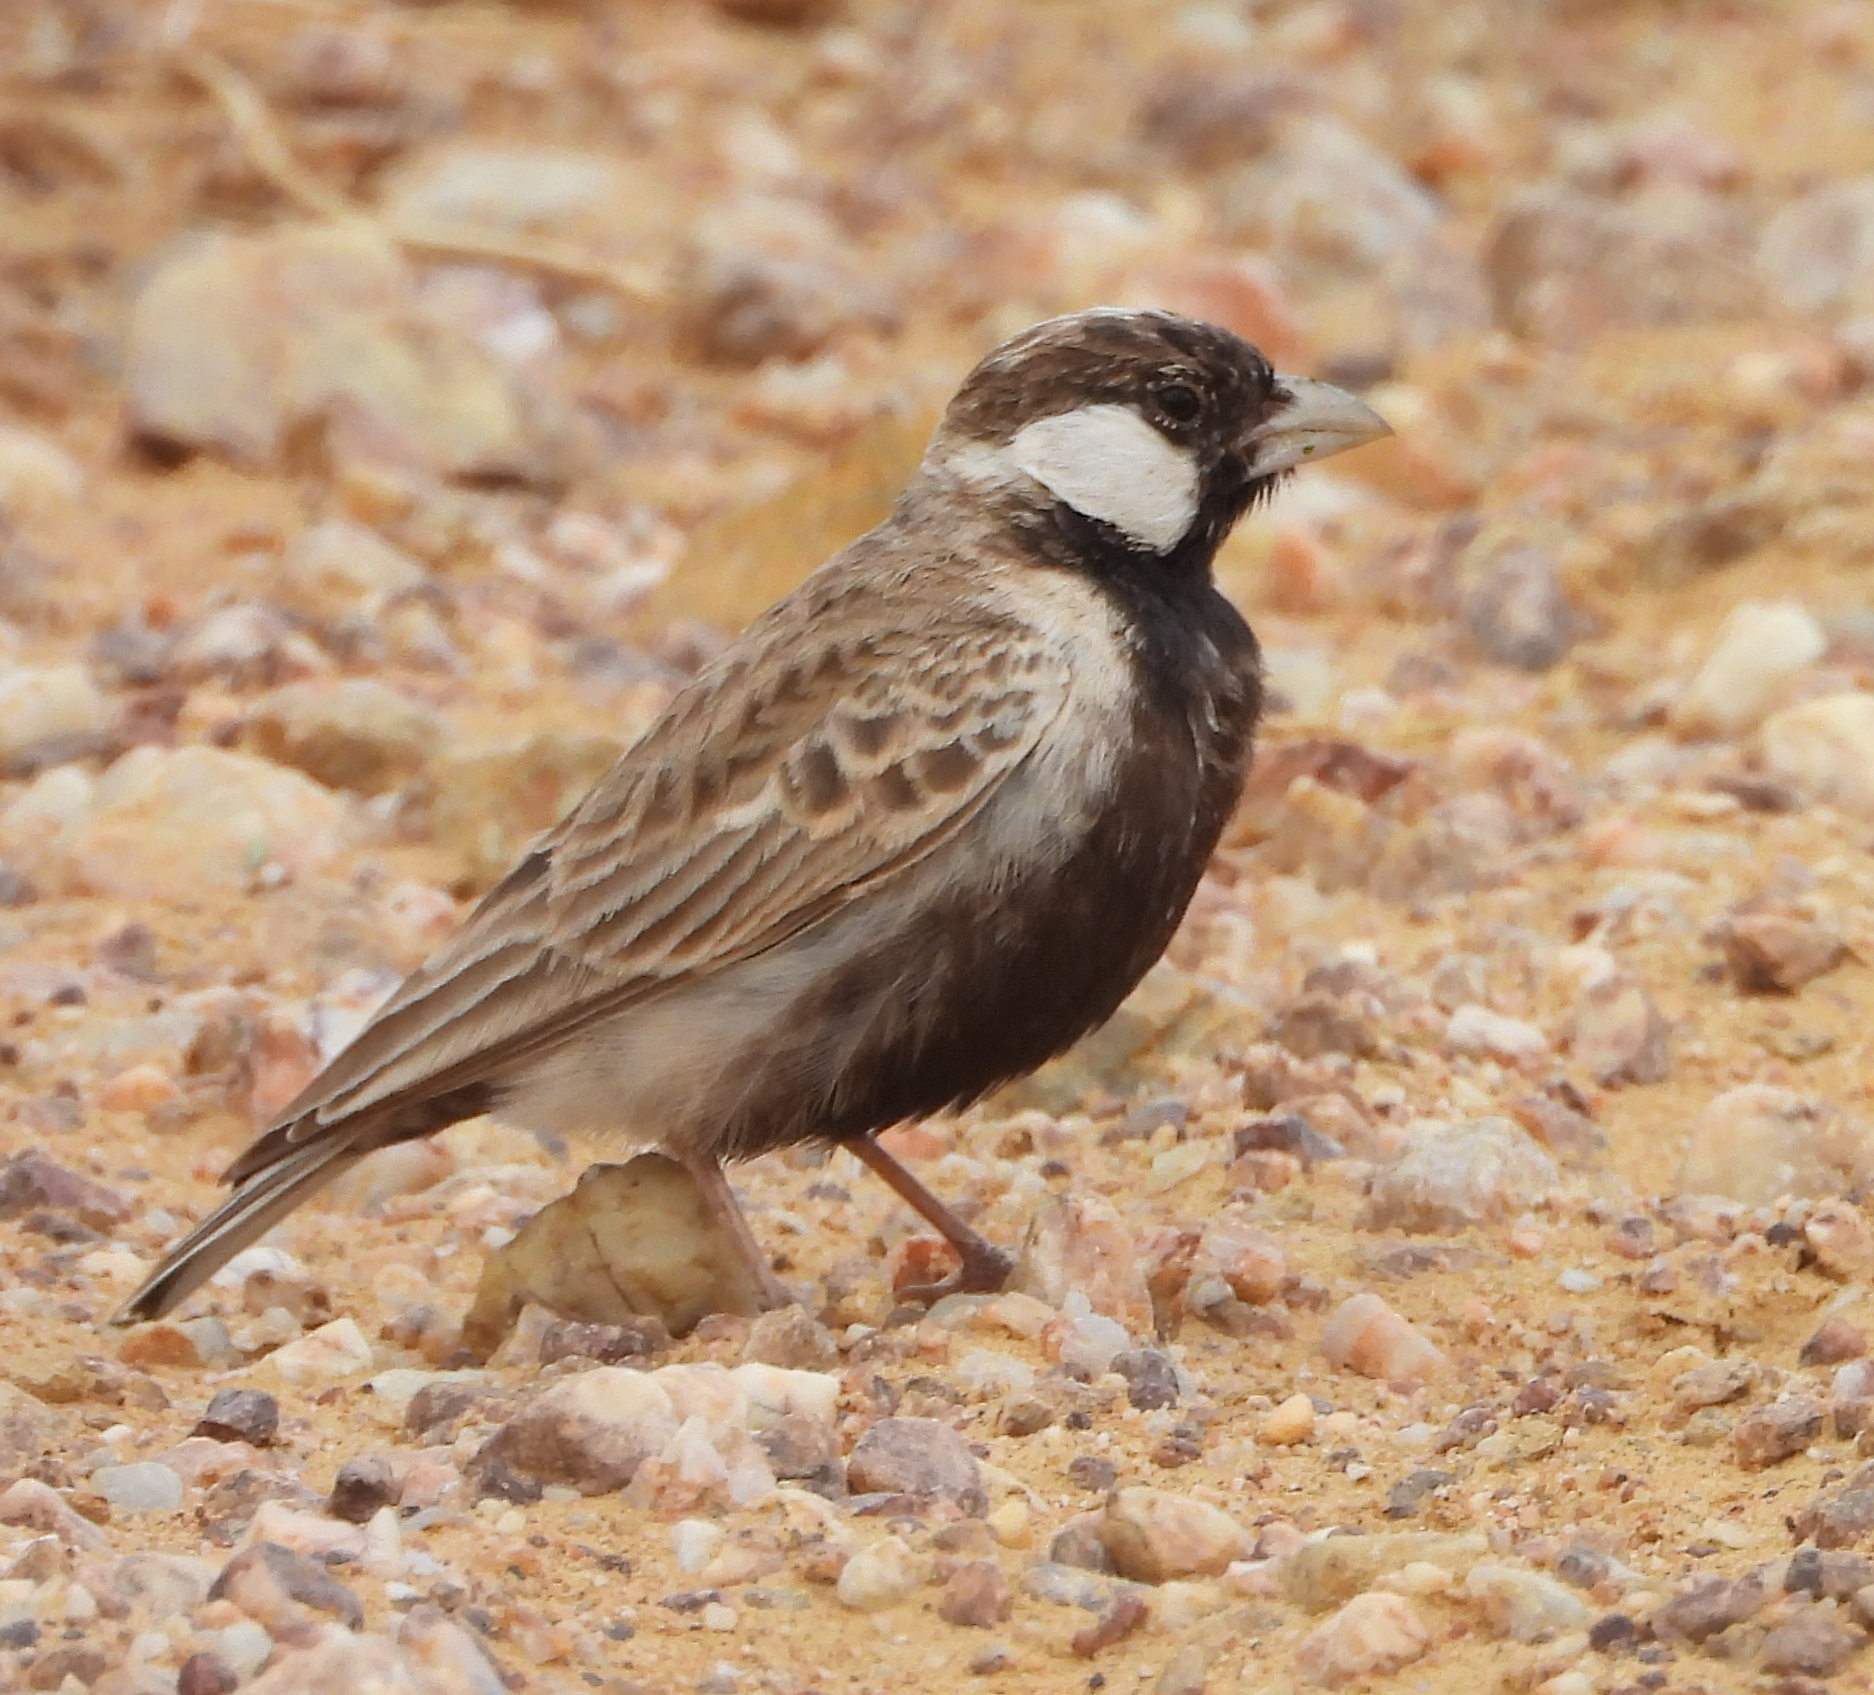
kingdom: Animalia
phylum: Chordata
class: Aves
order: Passeriformes
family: Alaudidae
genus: Eremopterix
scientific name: Eremopterix verticalis
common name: Grey-backed sparrow-lark
